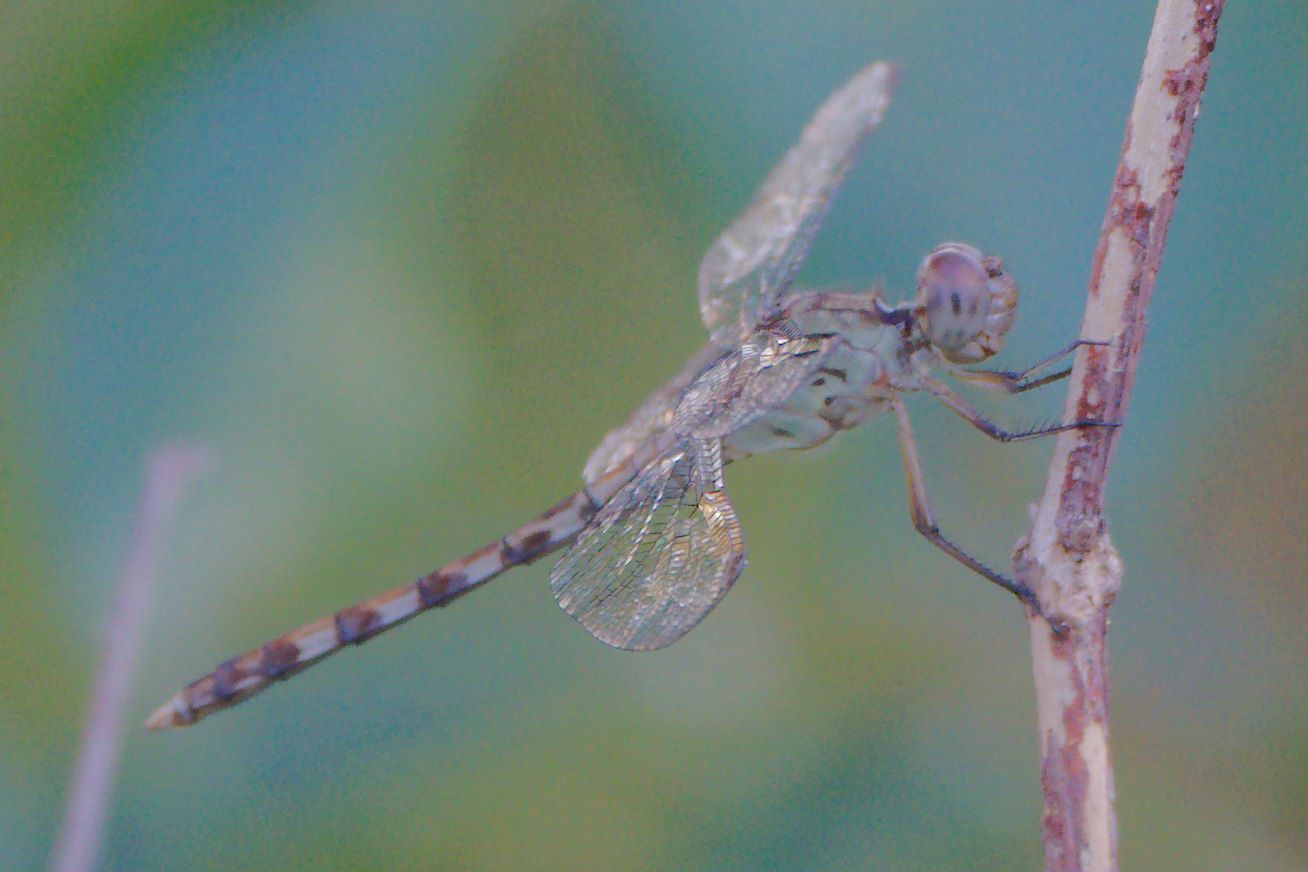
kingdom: Animalia
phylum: Arthropoda
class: Insecta
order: Odonata
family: Libellulidae
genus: Erythrodiplax
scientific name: Erythrodiplax umbrata
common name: Band-winged dragonlet
